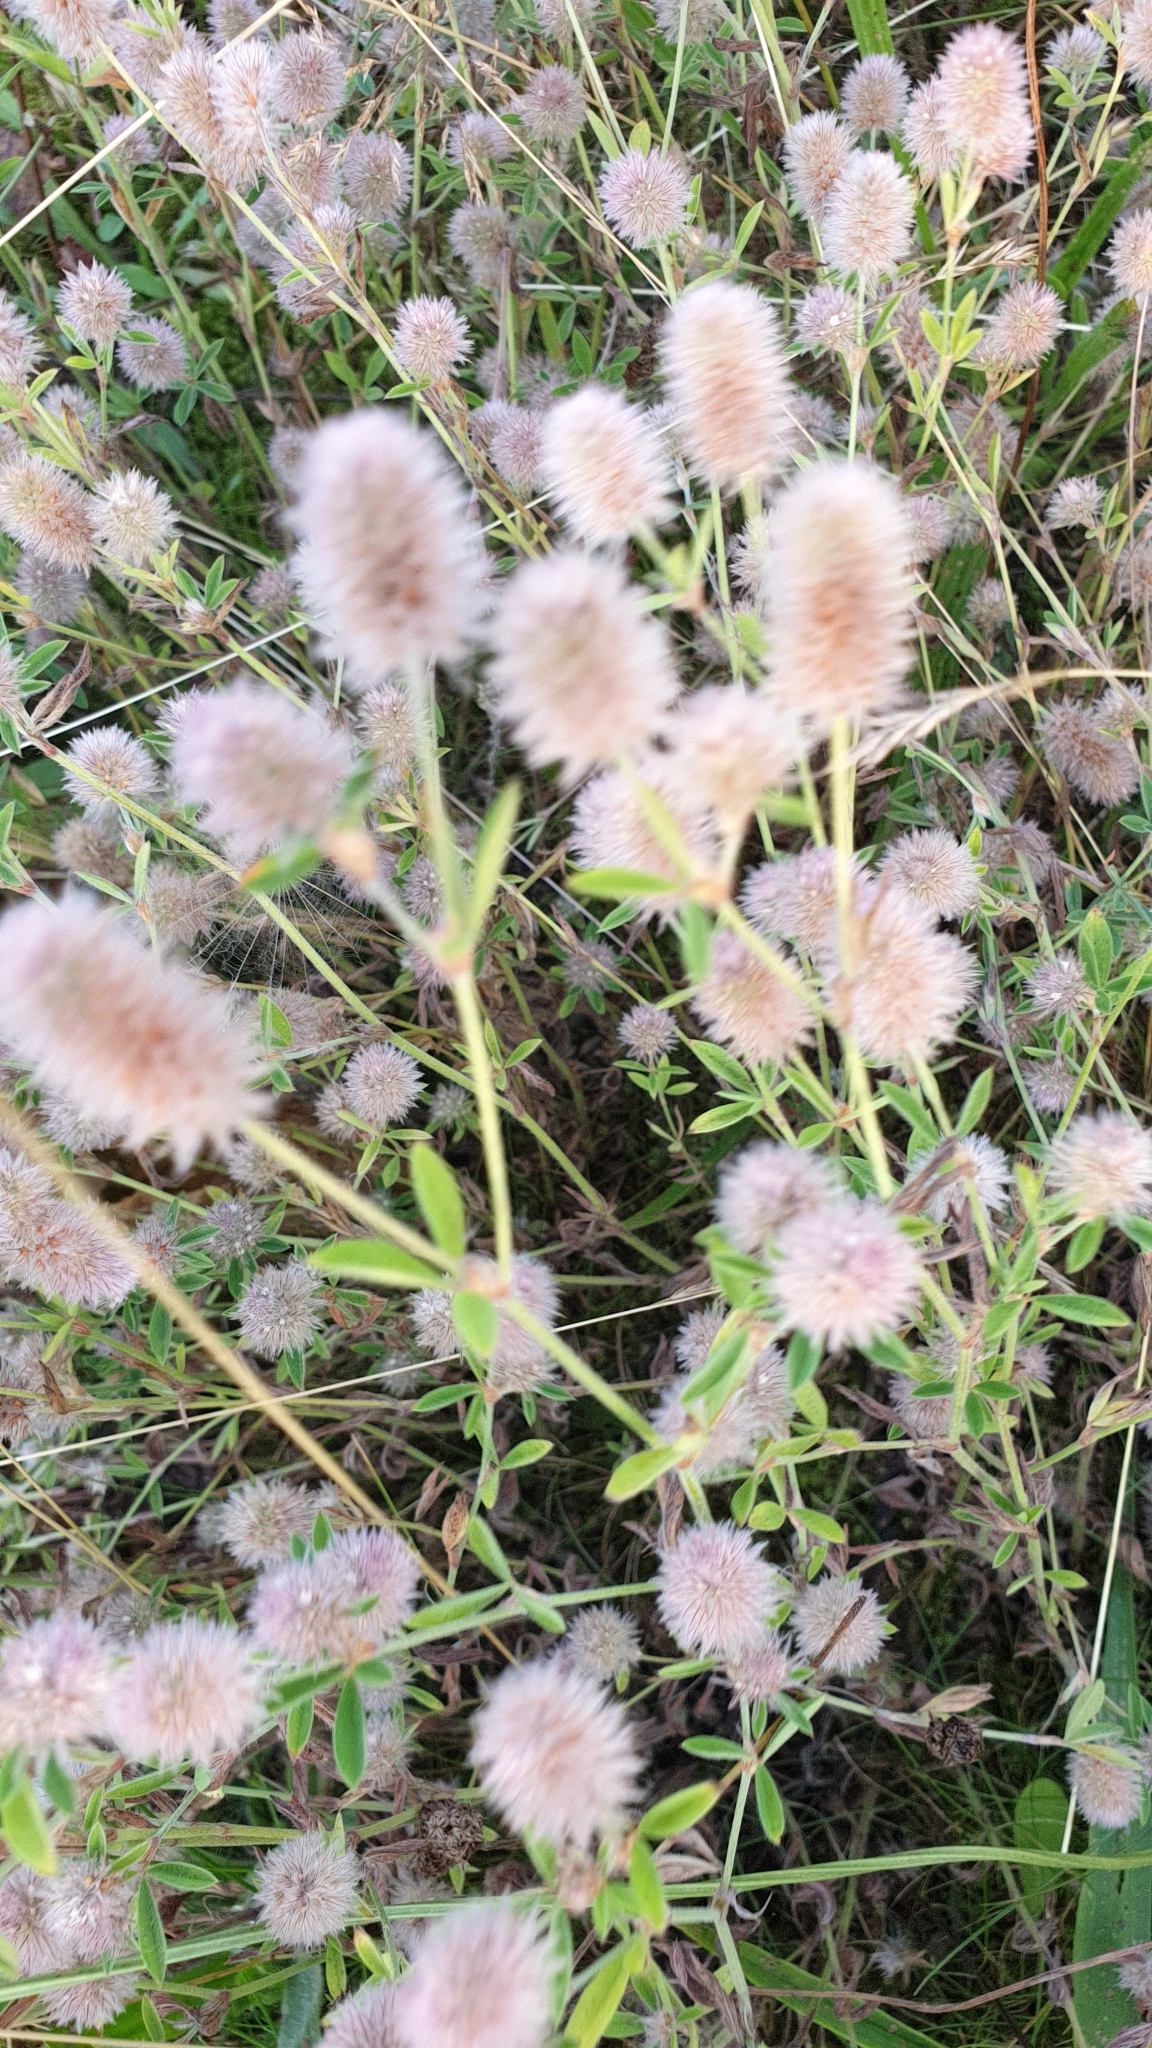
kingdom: Plantae
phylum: Tracheophyta
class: Magnoliopsida
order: Fabales
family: Fabaceae
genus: Trifolium
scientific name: Trifolium arvense
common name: Hare's-foot clover
